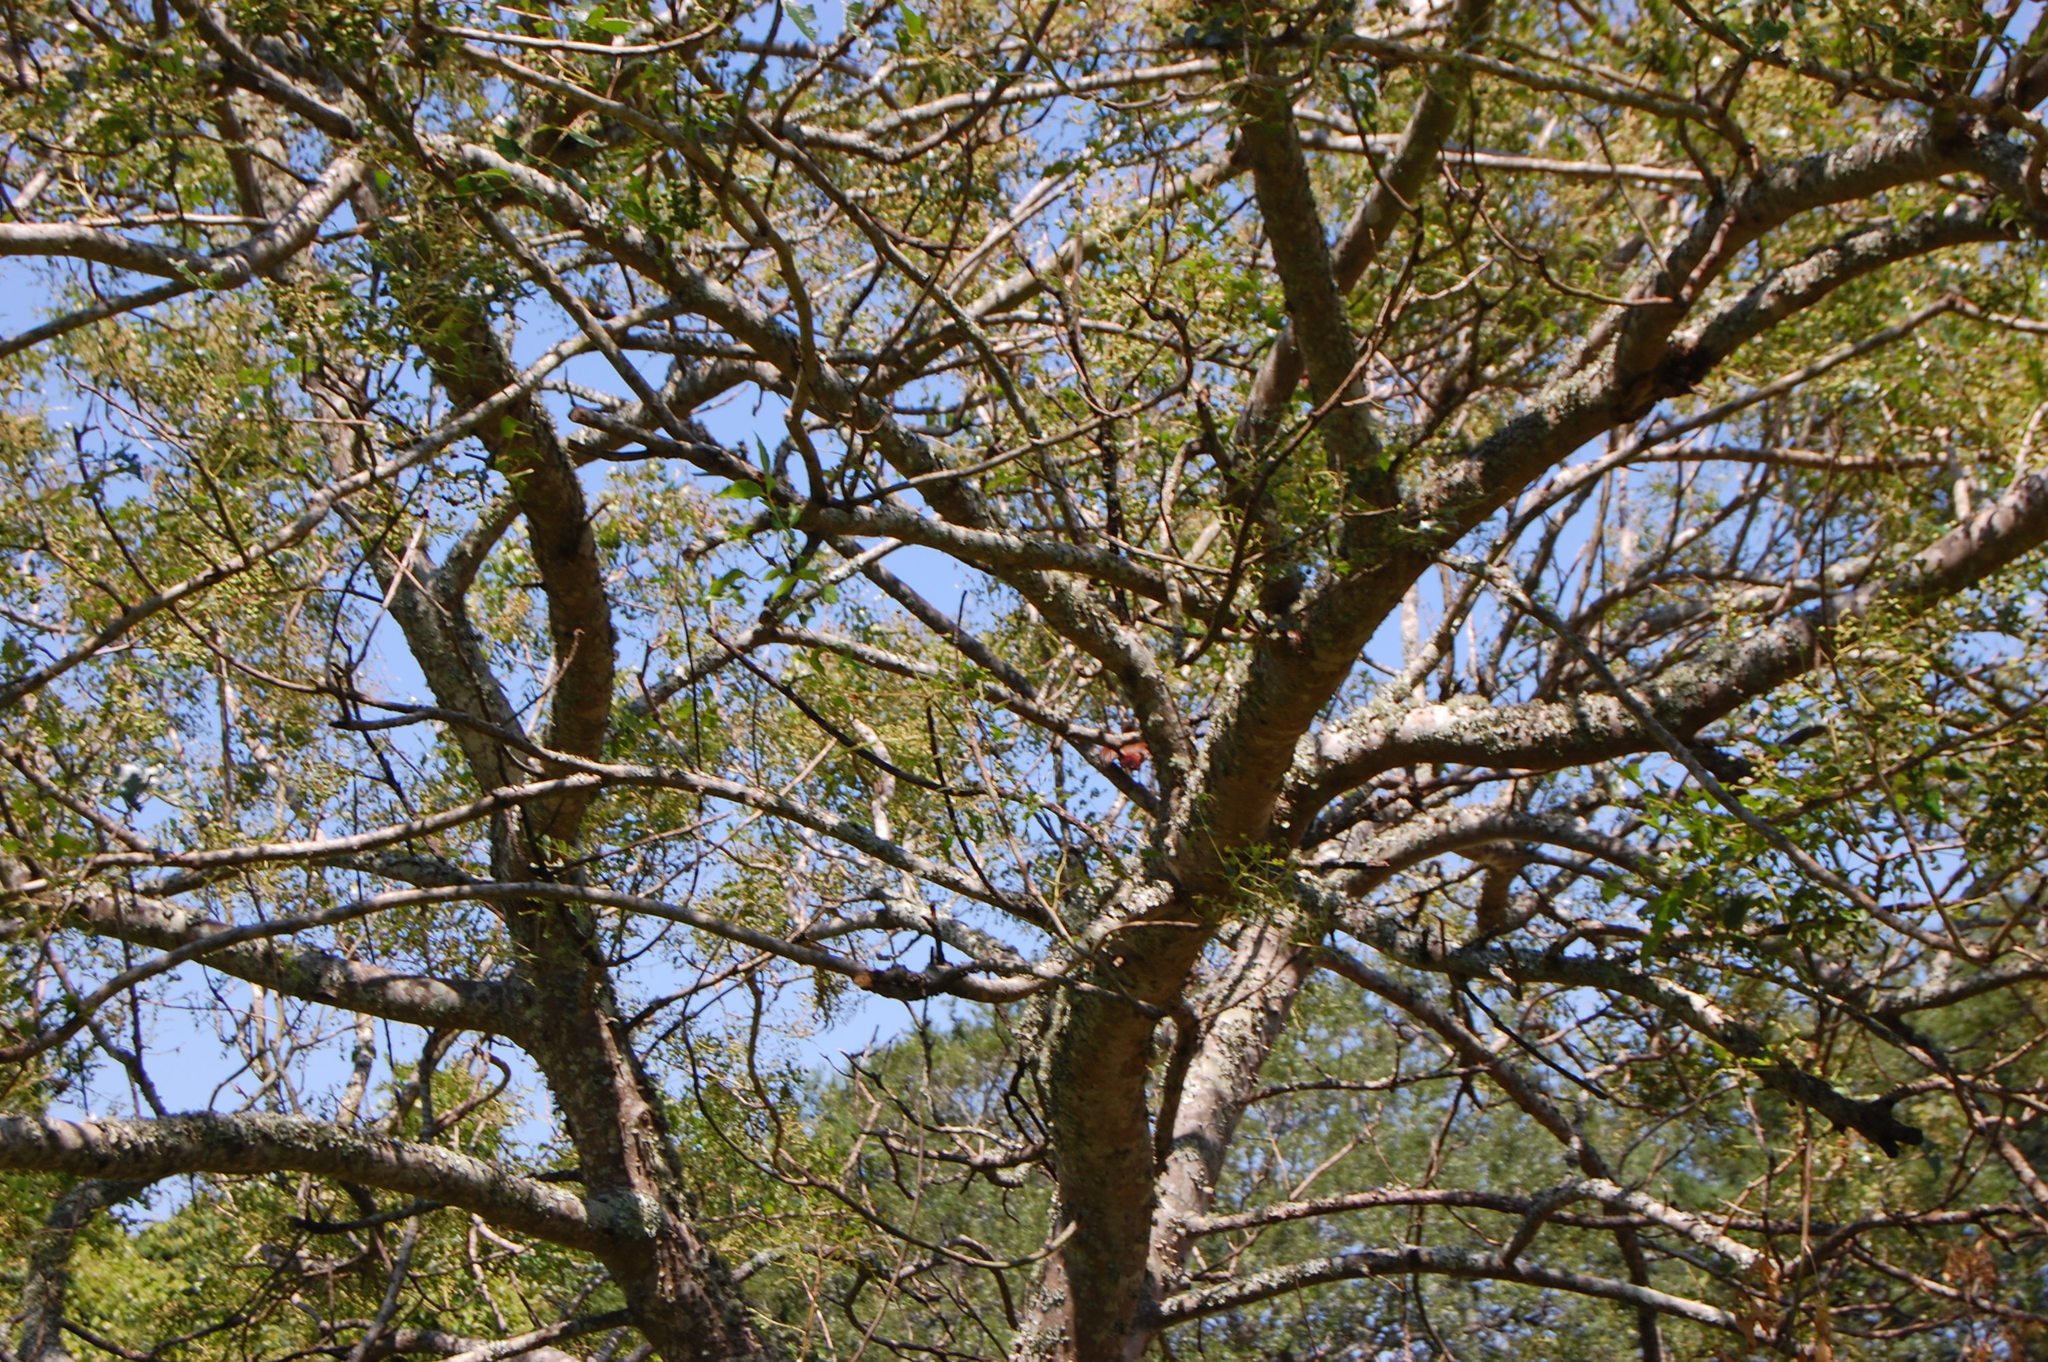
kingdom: Animalia
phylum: Chordata
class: Aves
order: Passeriformes
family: Cardinalidae
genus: Piranga
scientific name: Piranga rubra
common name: Summer tanager
